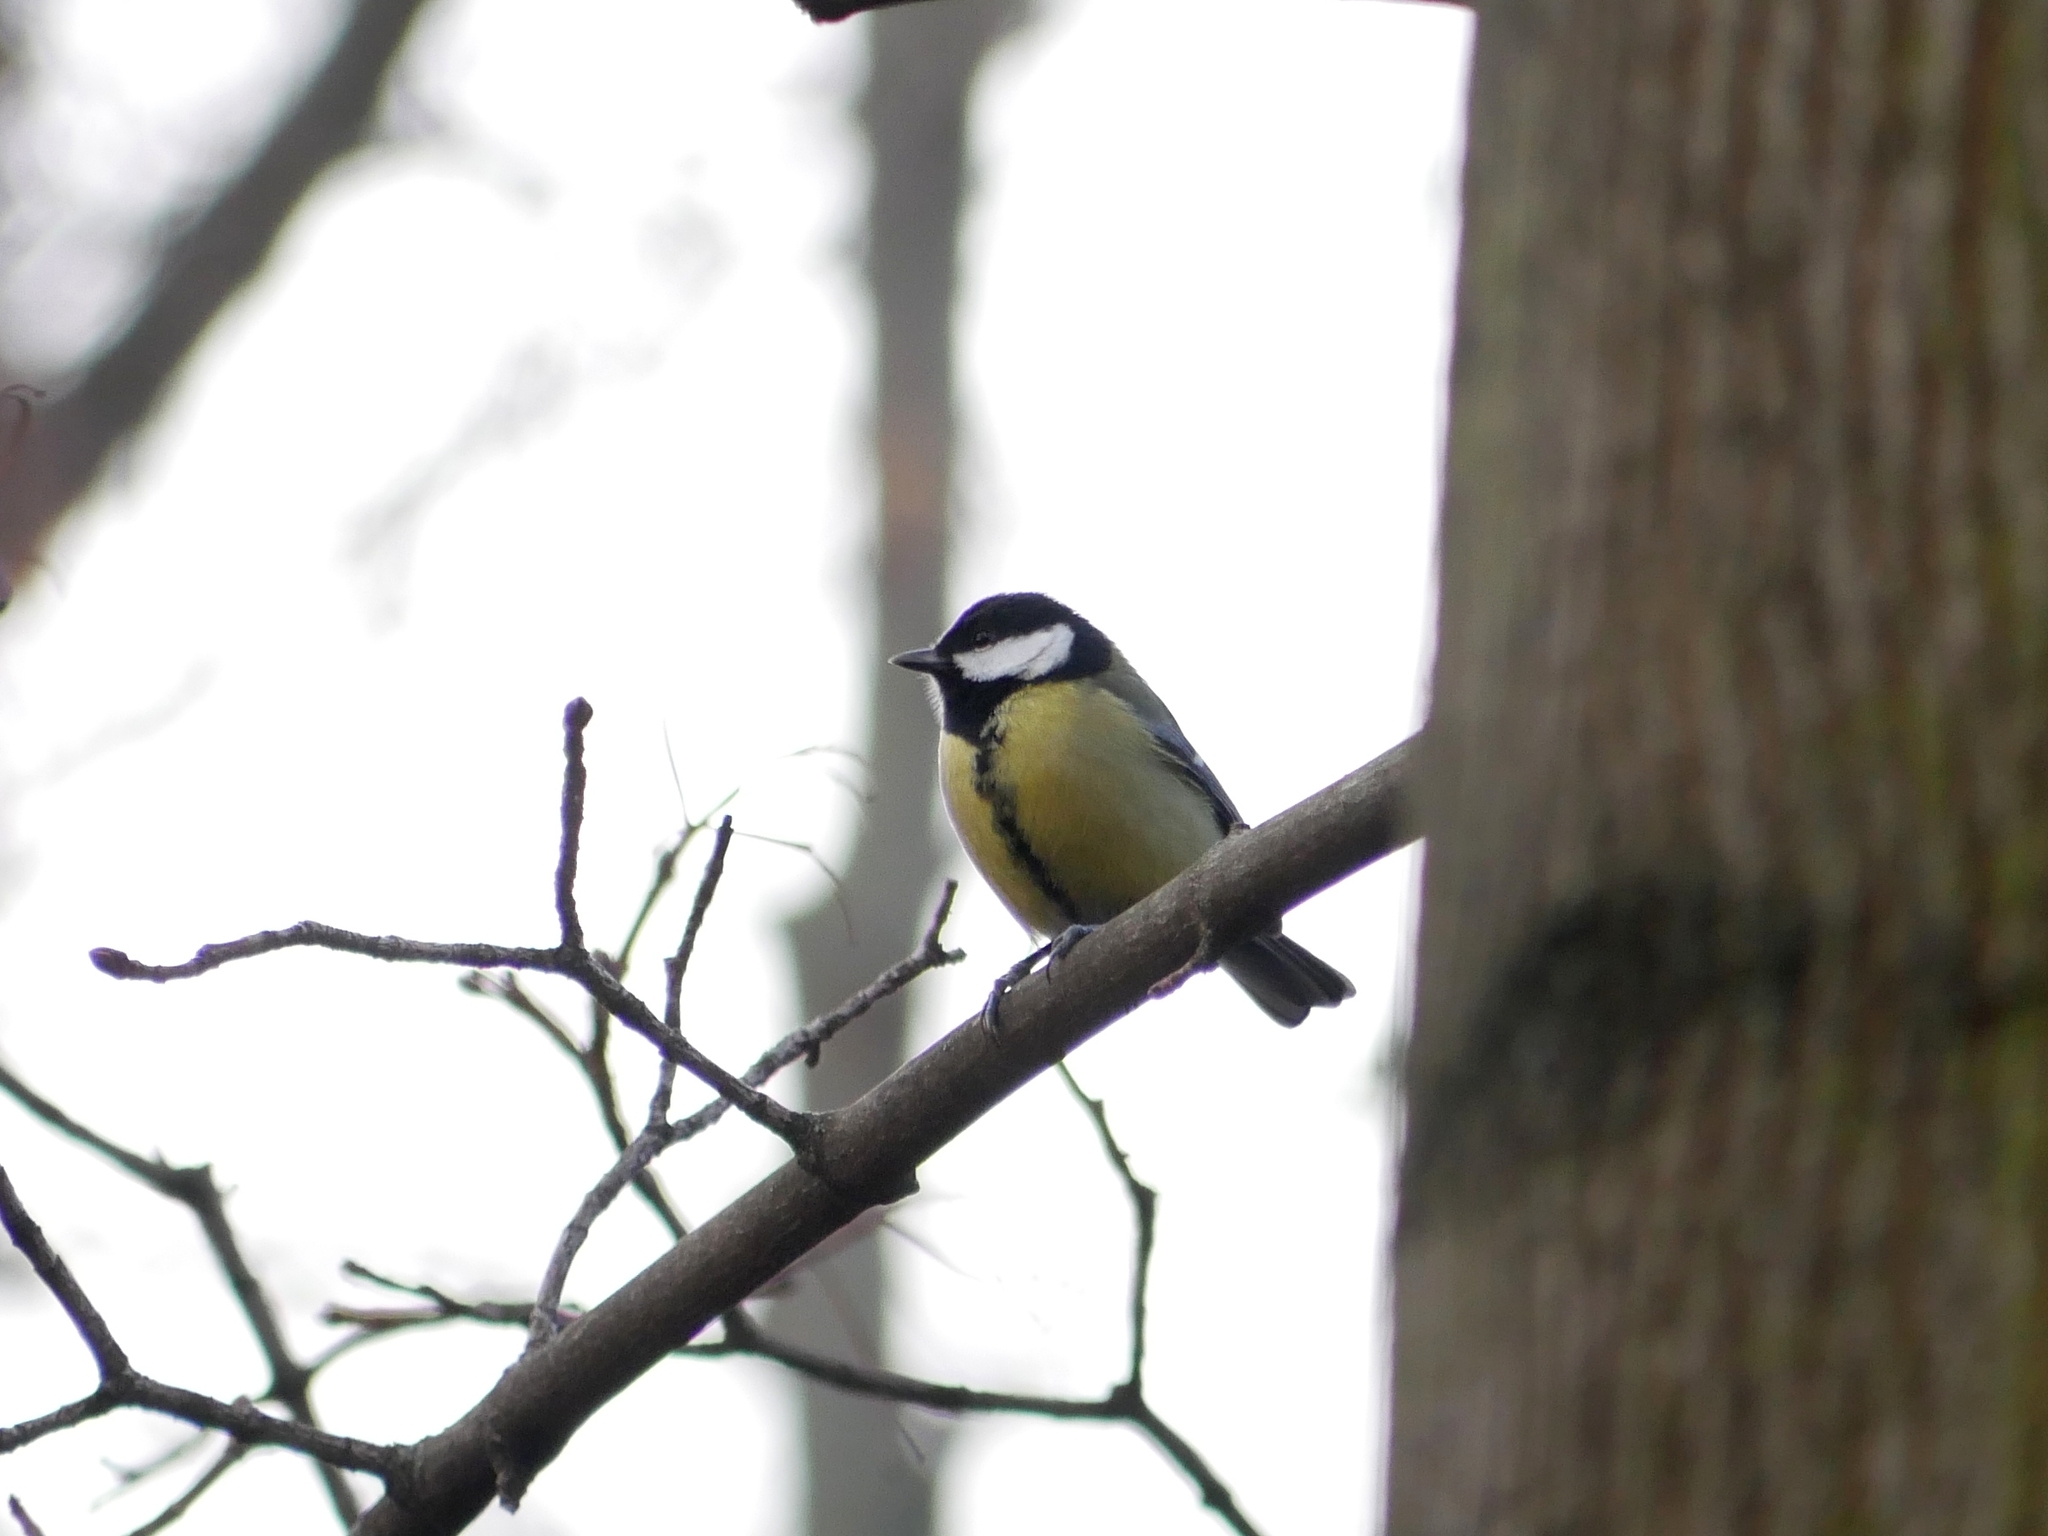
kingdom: Animalia
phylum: Chordata
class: Aves
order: Passeriformes
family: Paridae
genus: Parus
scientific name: Parus major
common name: Great tit
